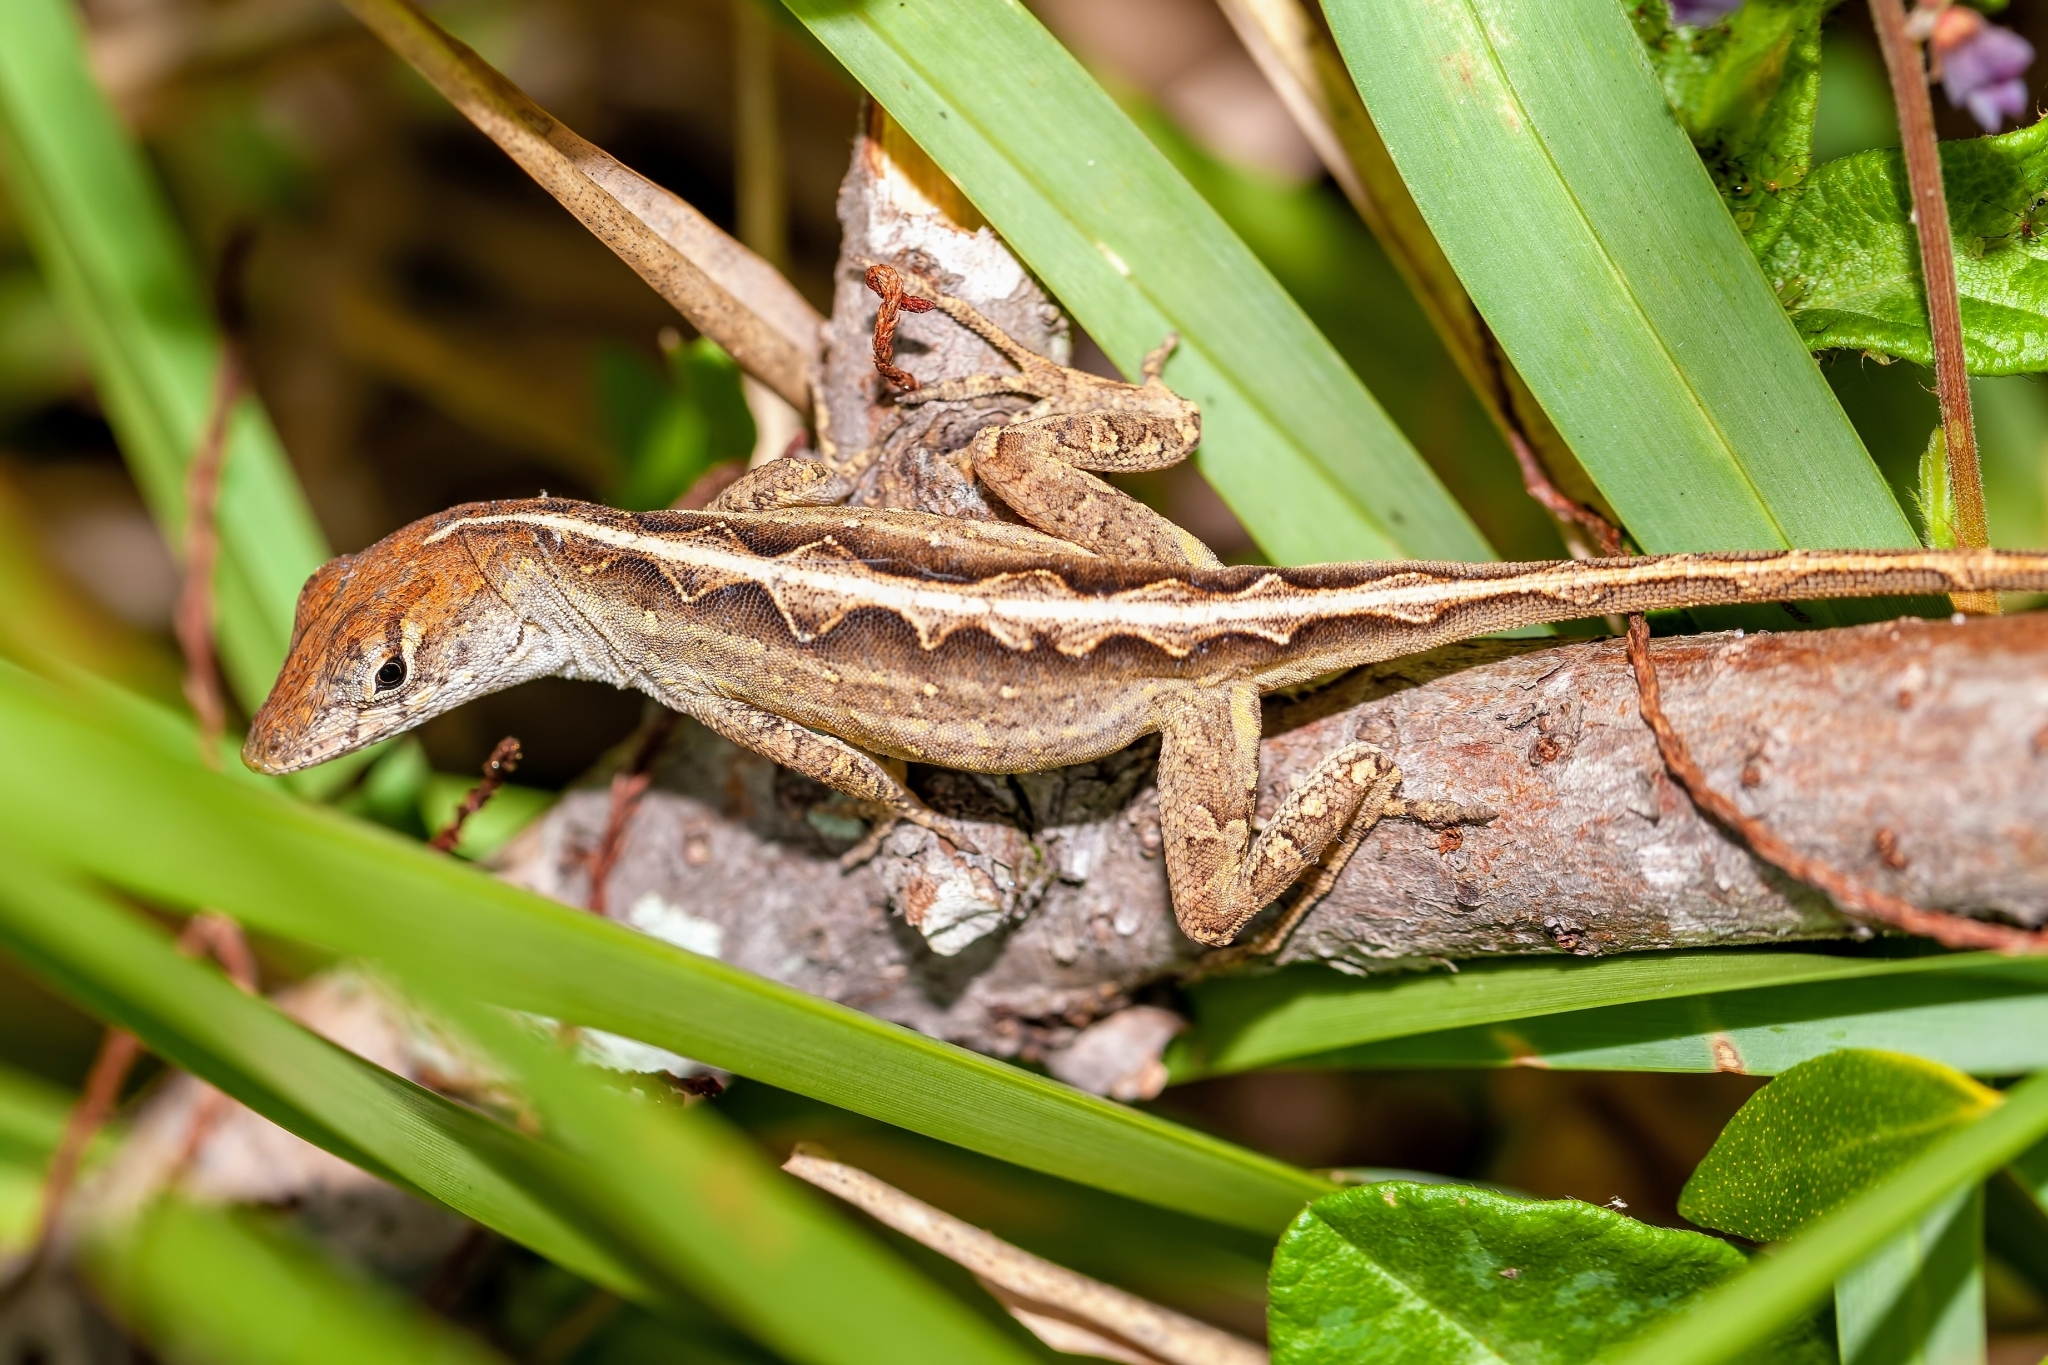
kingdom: Animalia
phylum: Chordata
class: Squamata
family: Dactyloidae
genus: Anolis
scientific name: Anolis sagrei
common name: Brown anole
